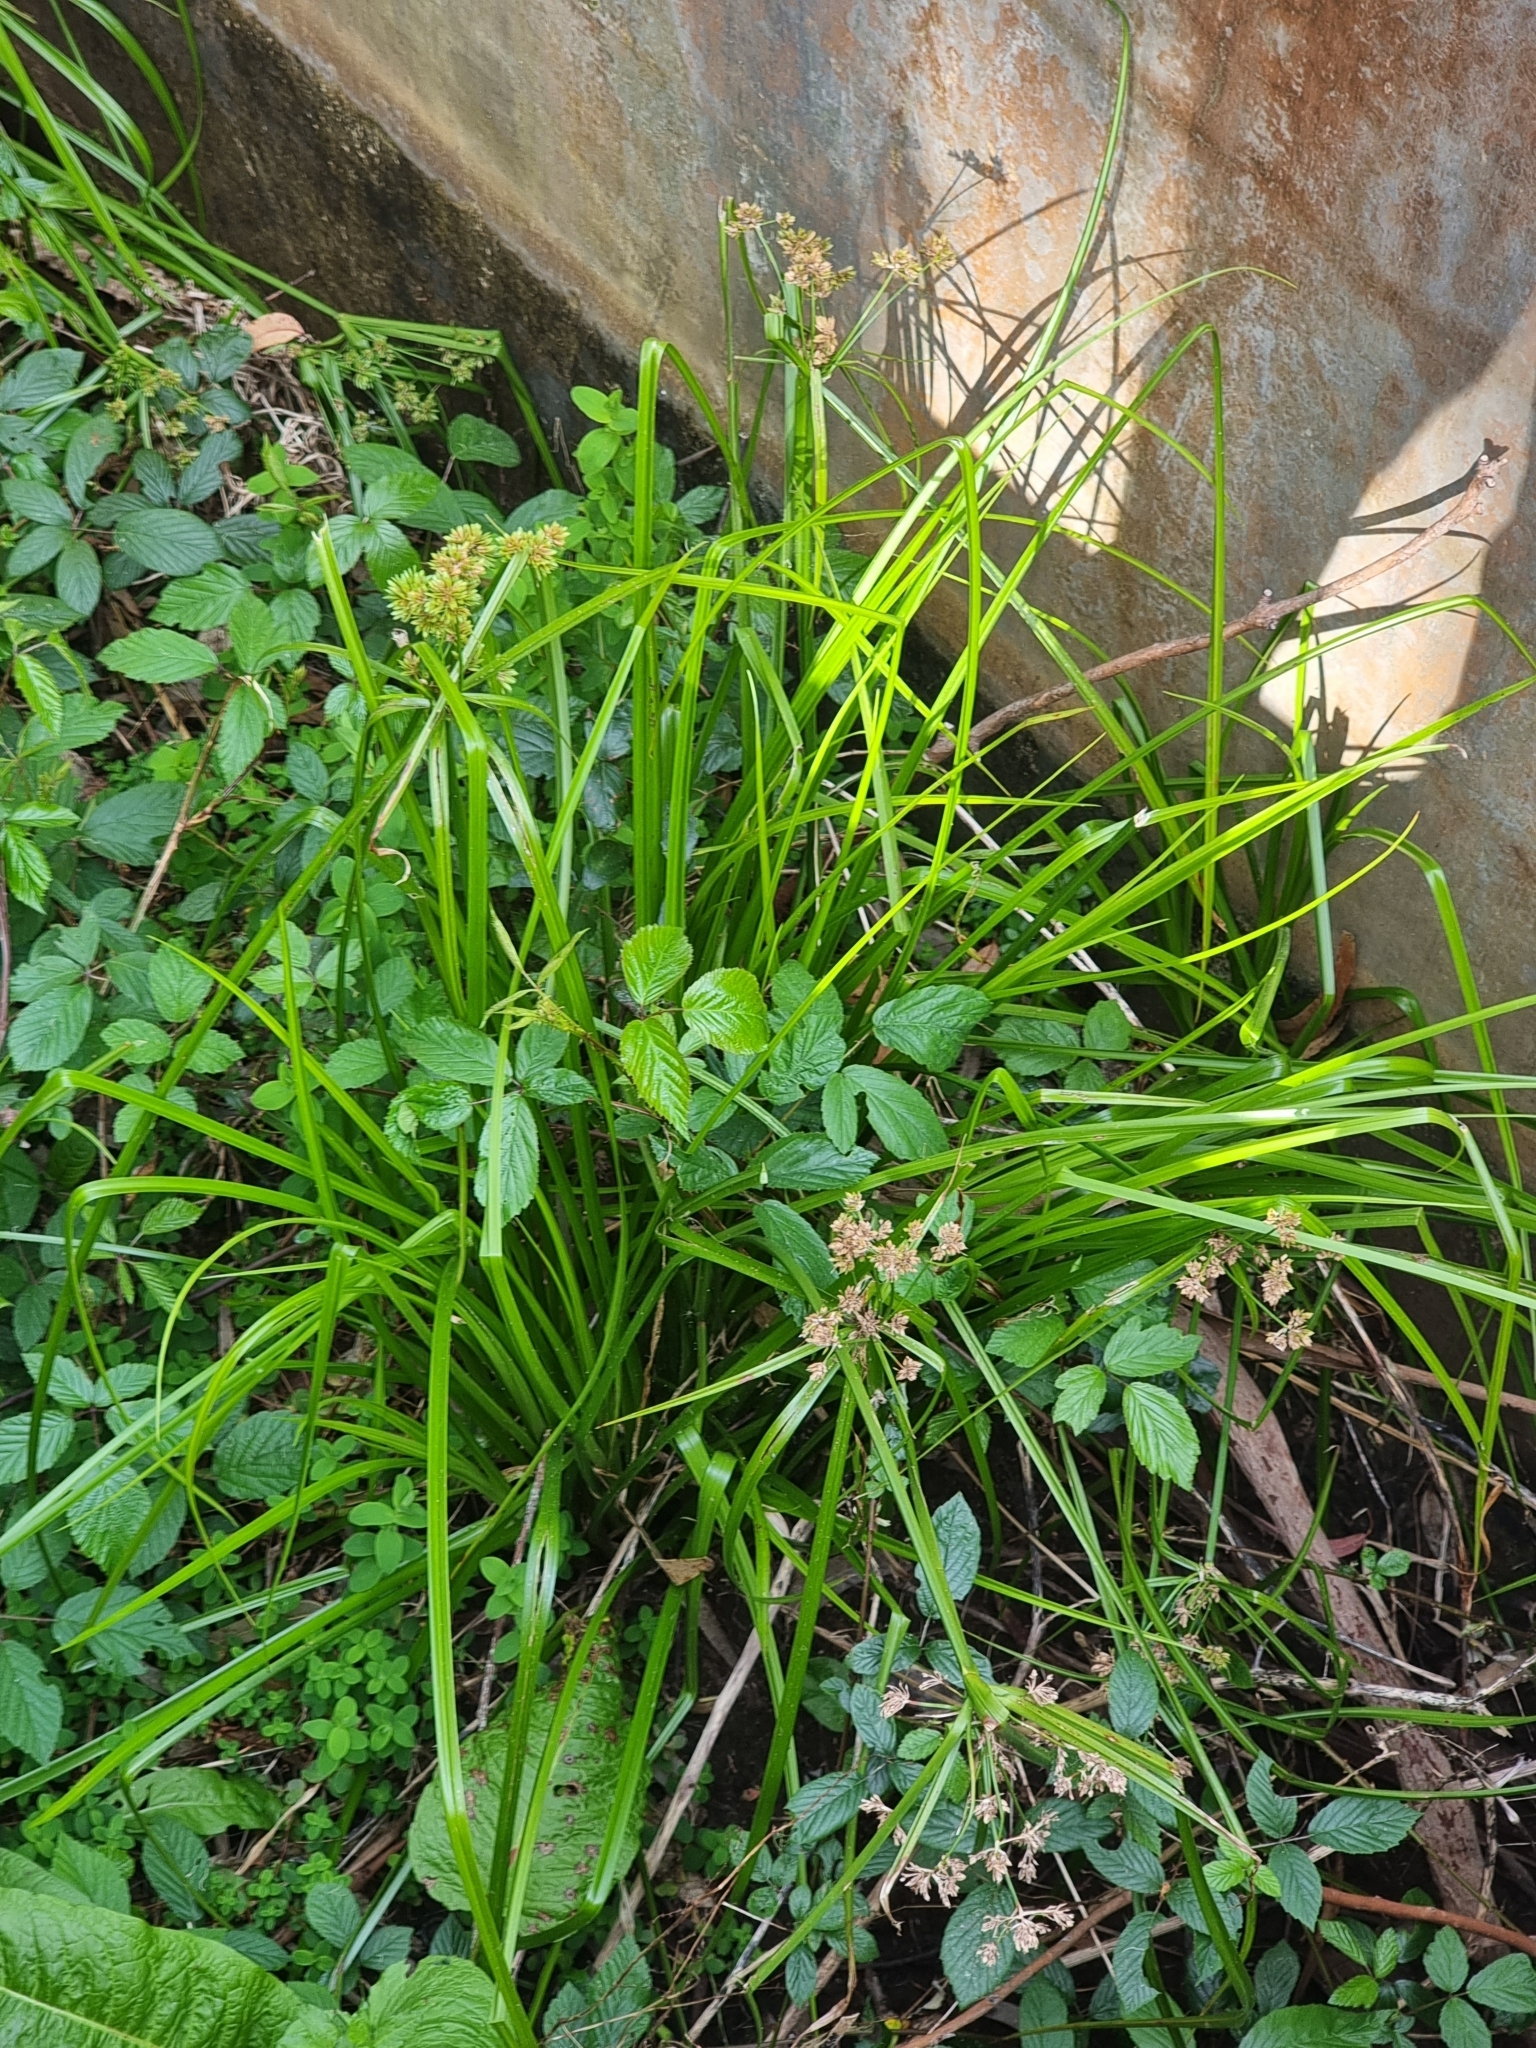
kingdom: Plantae
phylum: Tracheophyta
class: Liliopsida
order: Poales
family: Cyperaceae
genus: Cyperus
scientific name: Cyperus eragrostis
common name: Tall flatsedge
